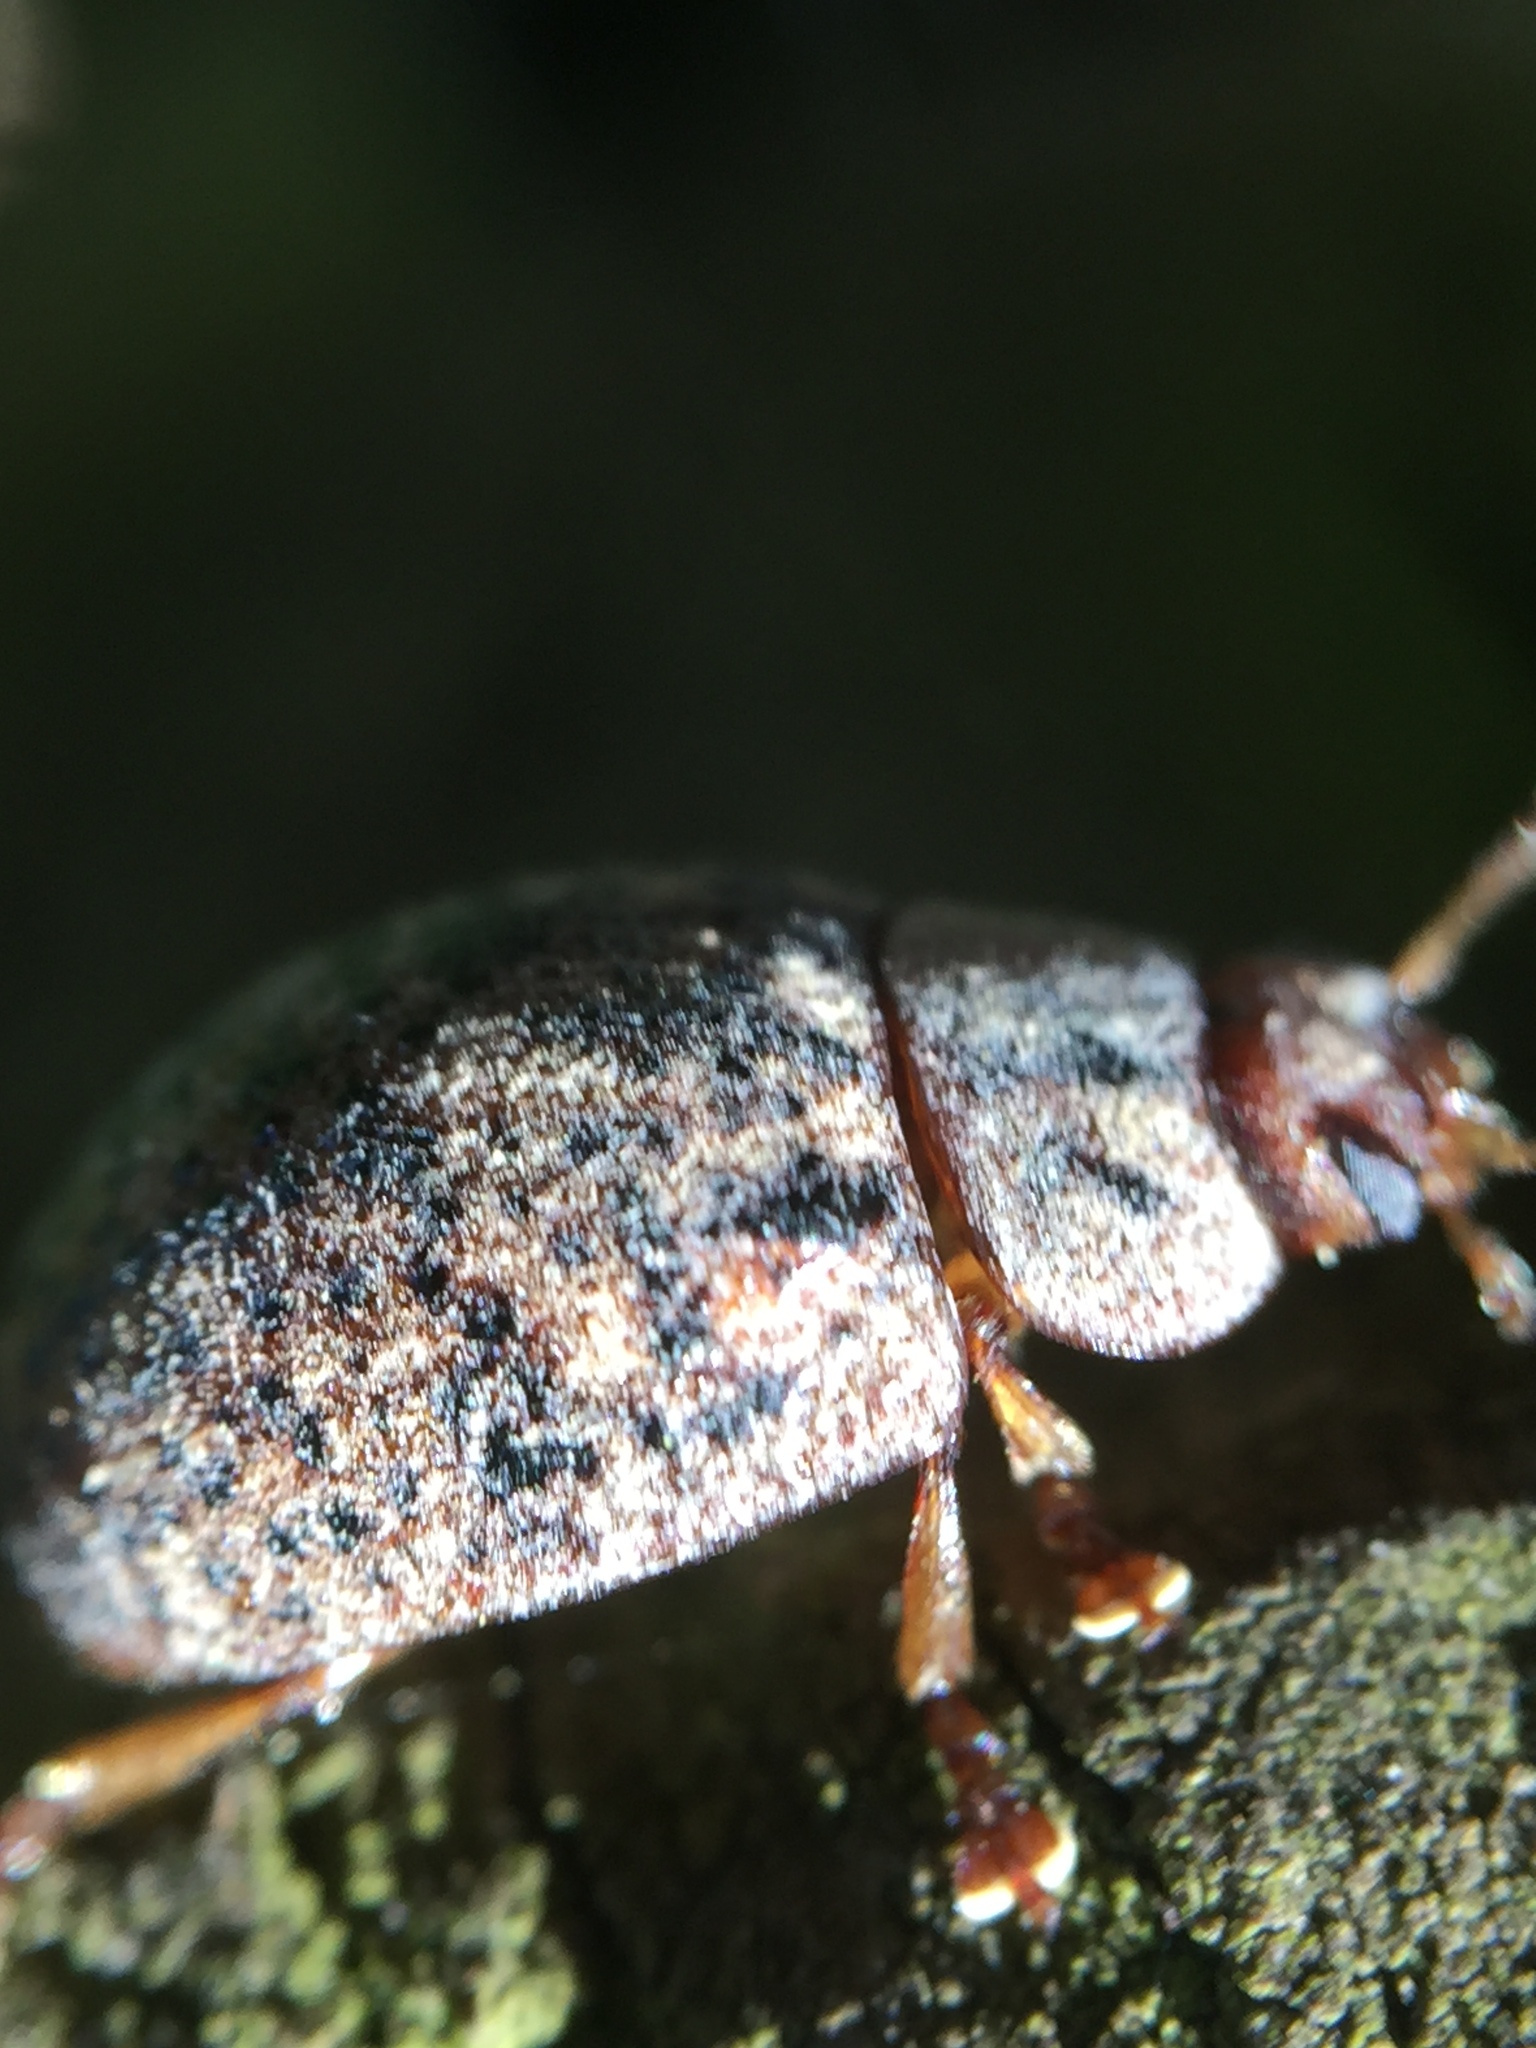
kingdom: Animalia
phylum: Arthropoda
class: Insecta
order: Coleoptera
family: Chrysomelidae
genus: Trachymela
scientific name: Trachymela sloanei
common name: Australian tortoise beetle
